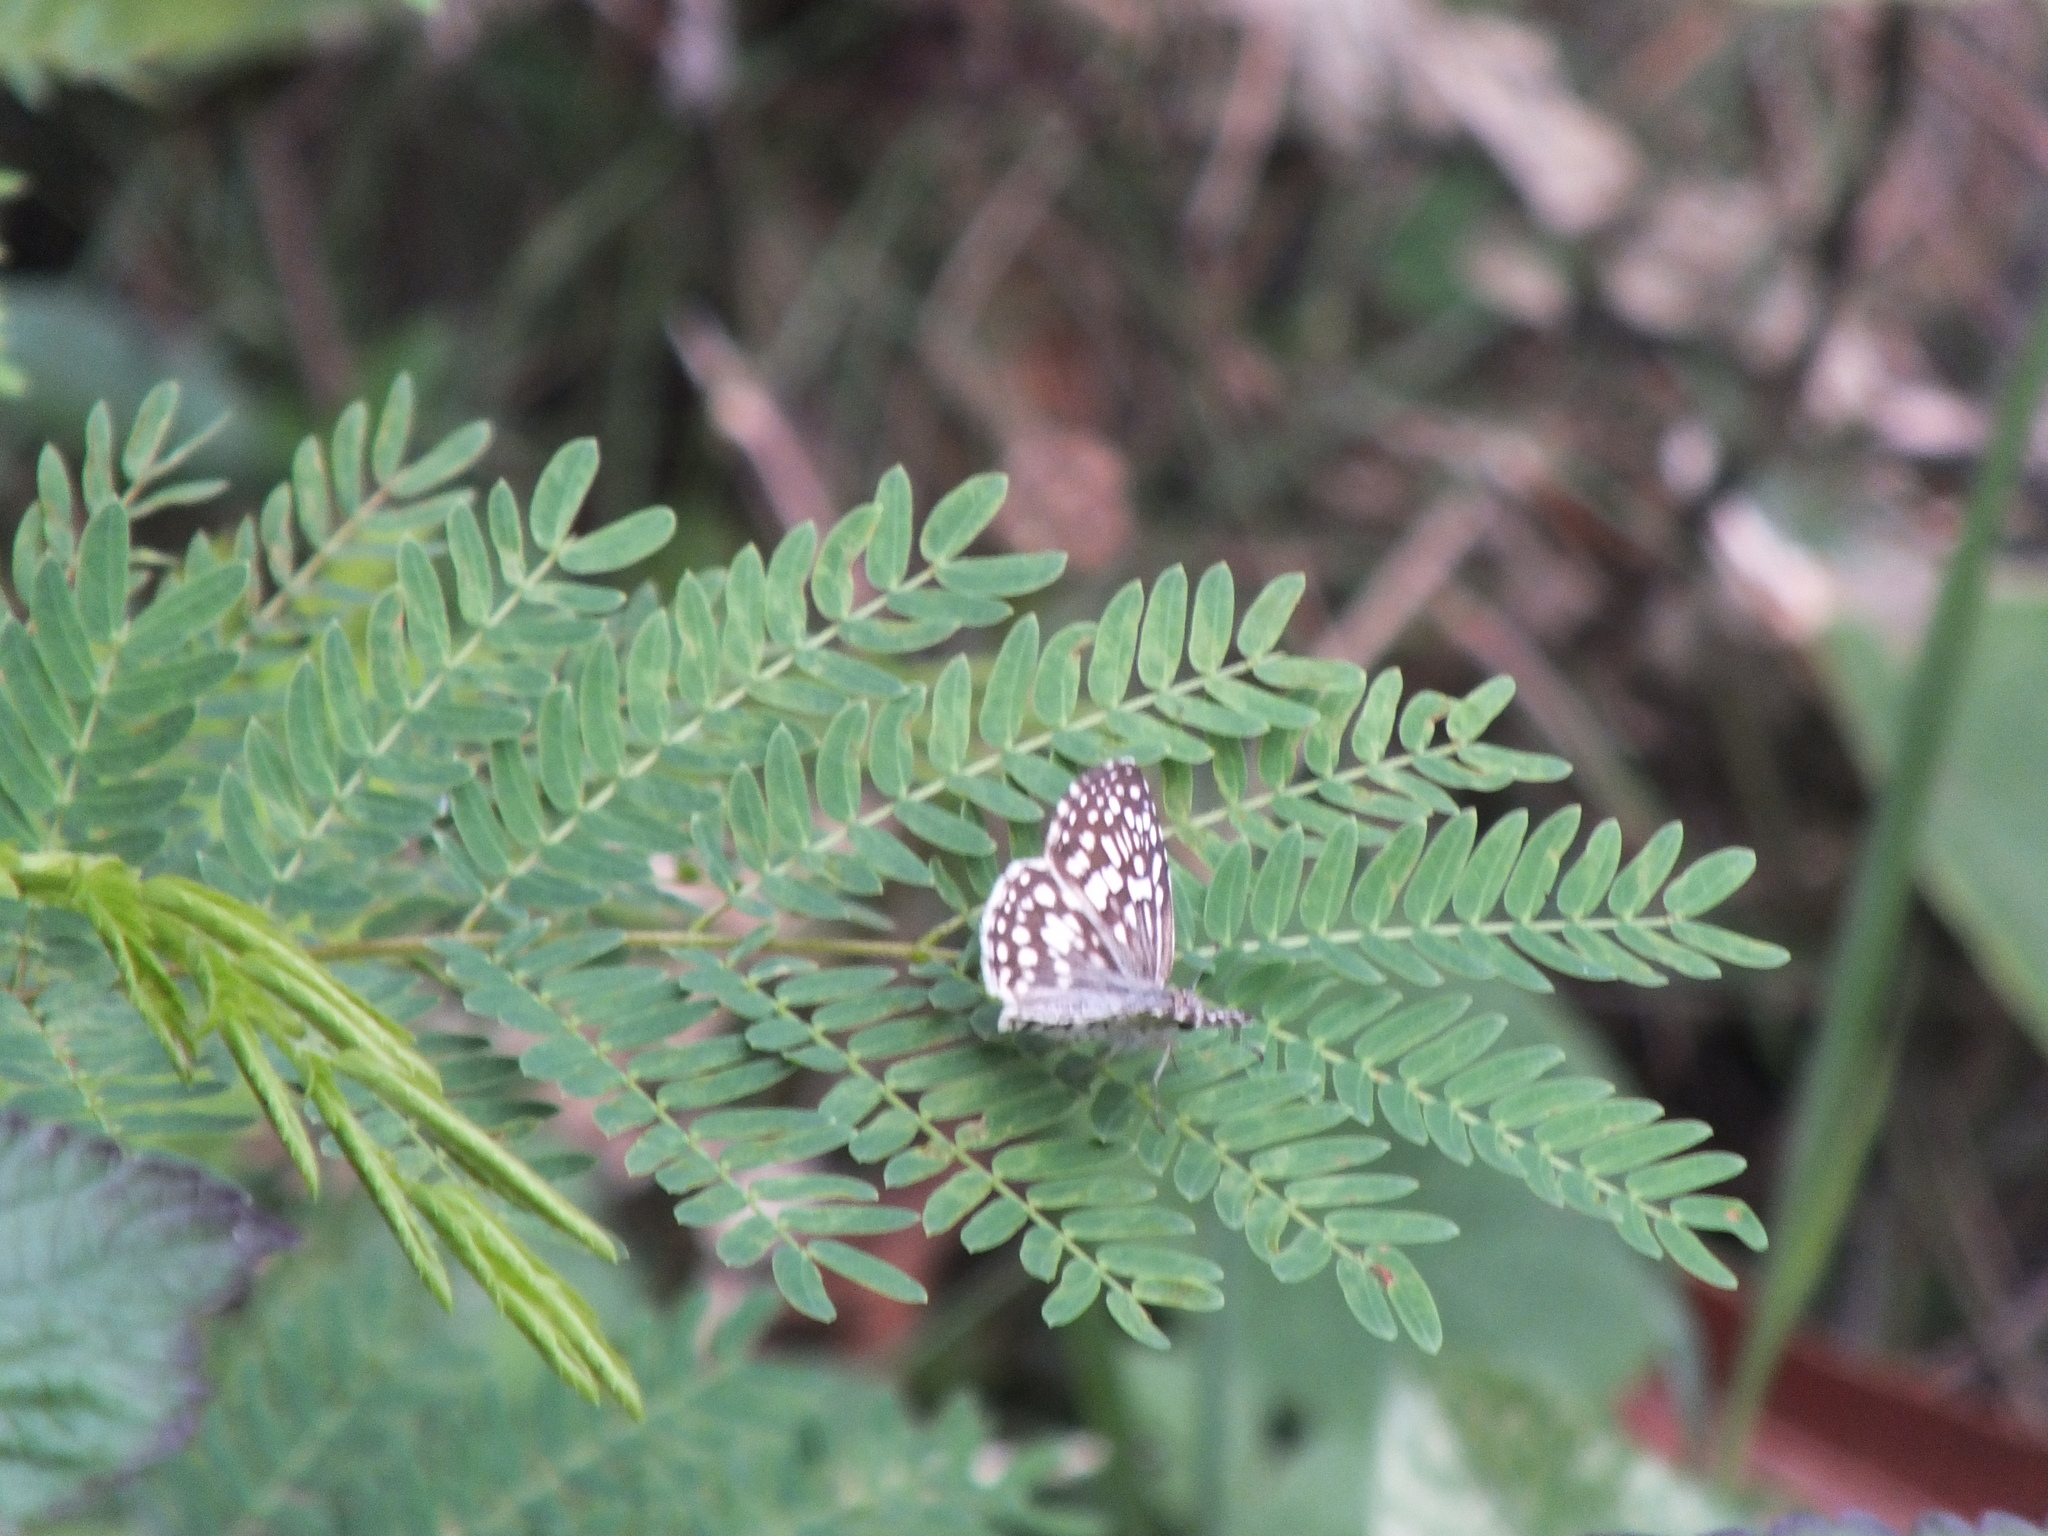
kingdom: Animalia
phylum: Arthropoda
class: Insecta
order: Lepidoptera
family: Hesperiidae
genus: Pyrgus
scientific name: Pyrgus oileus
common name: Tropical checkered-skipper
